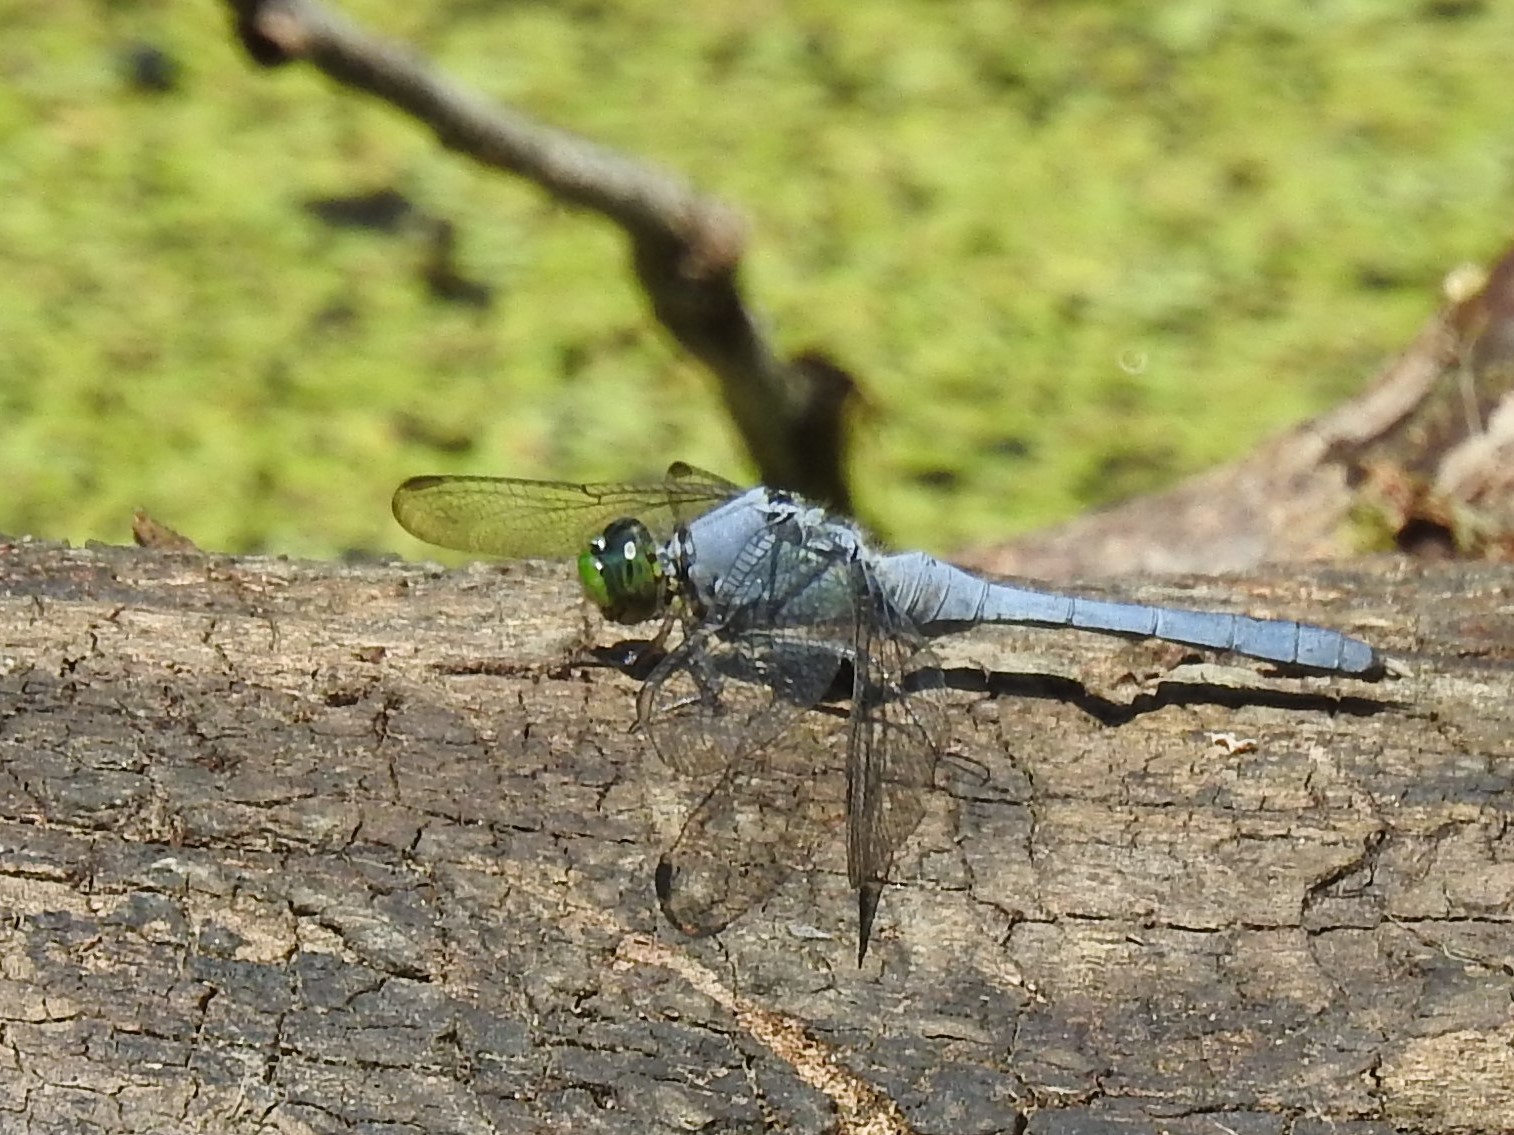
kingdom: Animalia
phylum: Arthropoda
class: Insecta
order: Odonata
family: Libellulidae
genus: Erythemis
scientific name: Erythemis simplicicollis
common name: Eastern pondhawk
